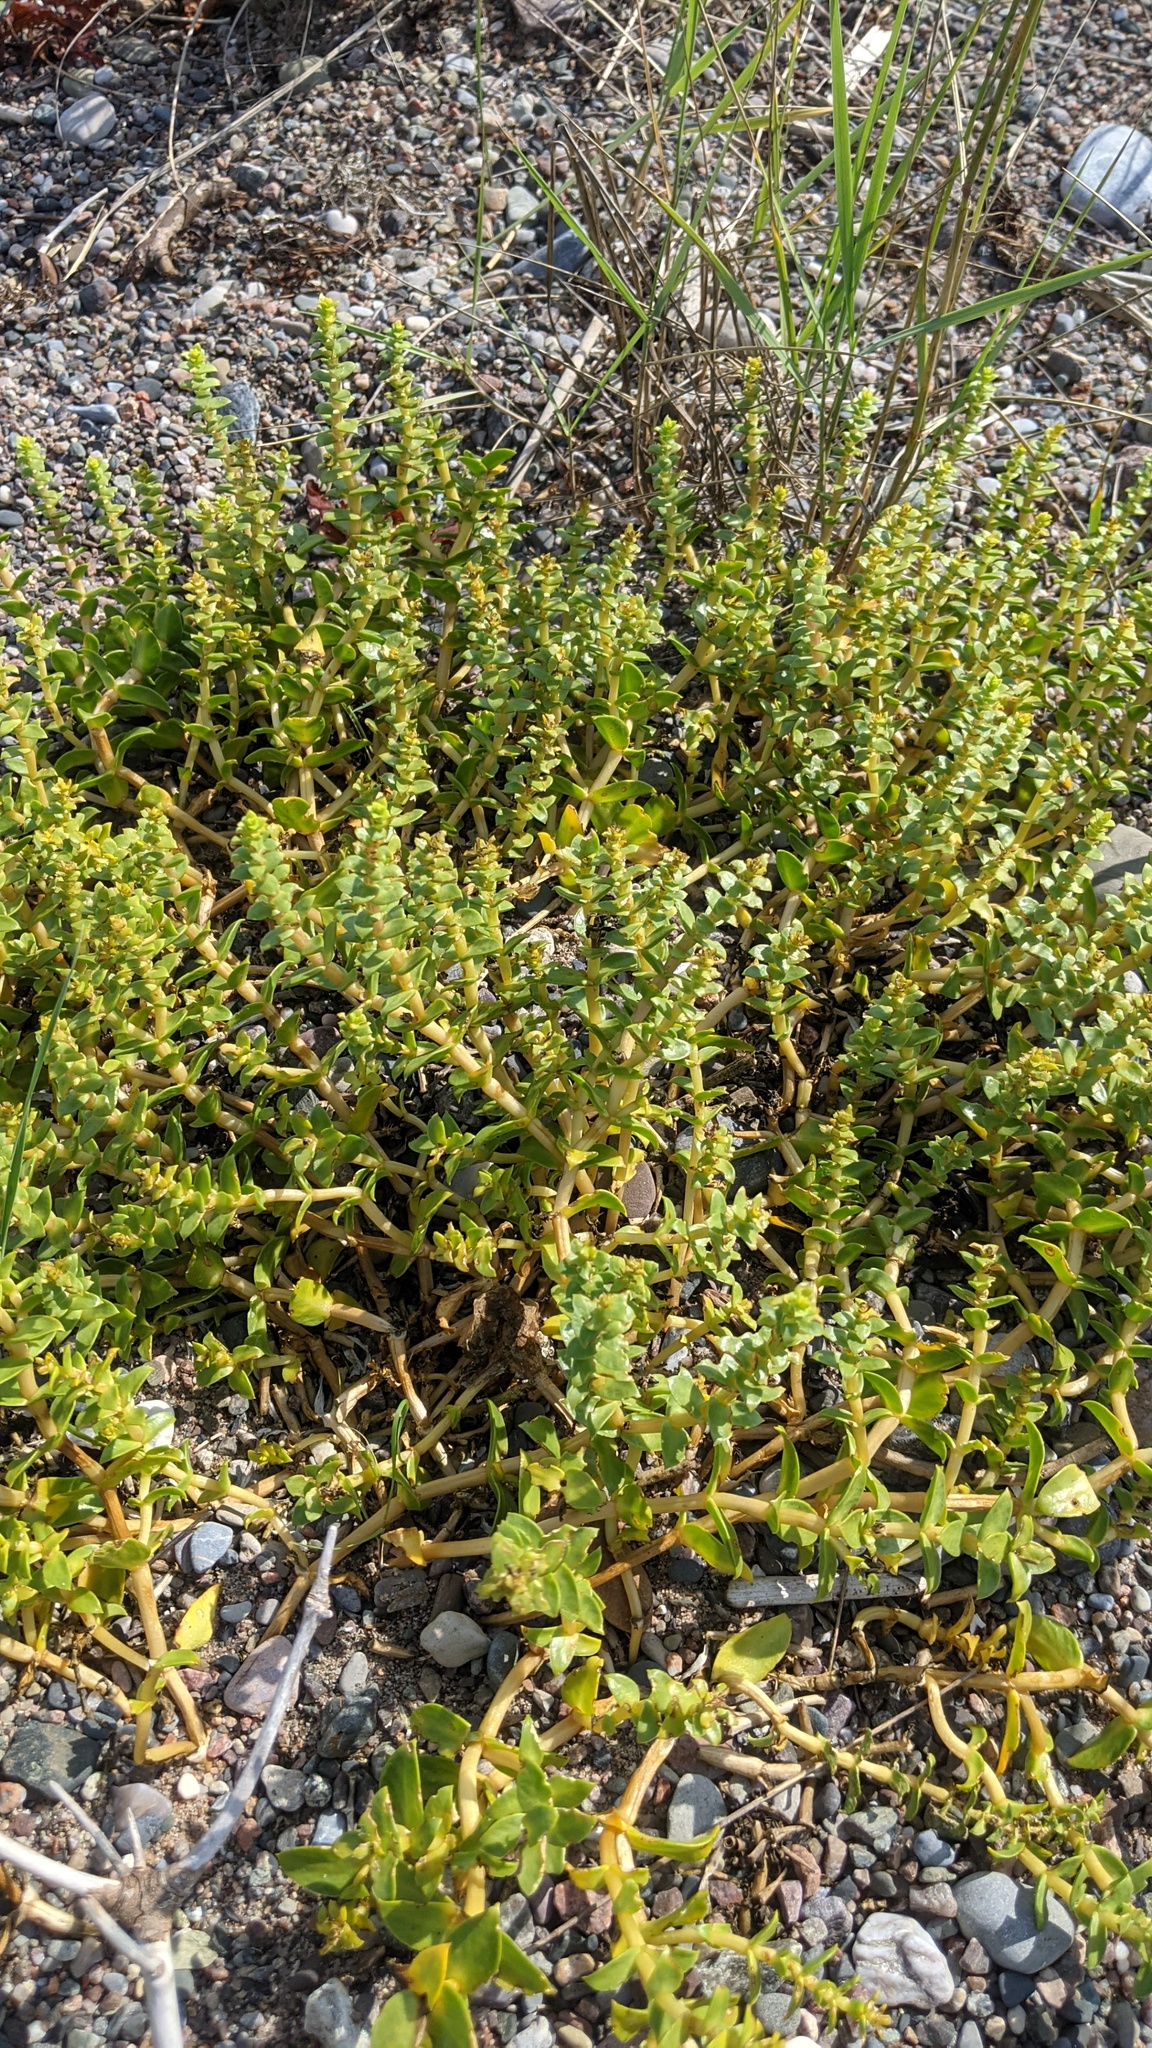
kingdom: Plantae
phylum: Tracheophyta
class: Magnoliopsida
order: Caryophyllales
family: Caryophyllaceae
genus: Honckenya
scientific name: Honckenya peploides
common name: Sea sandwort
